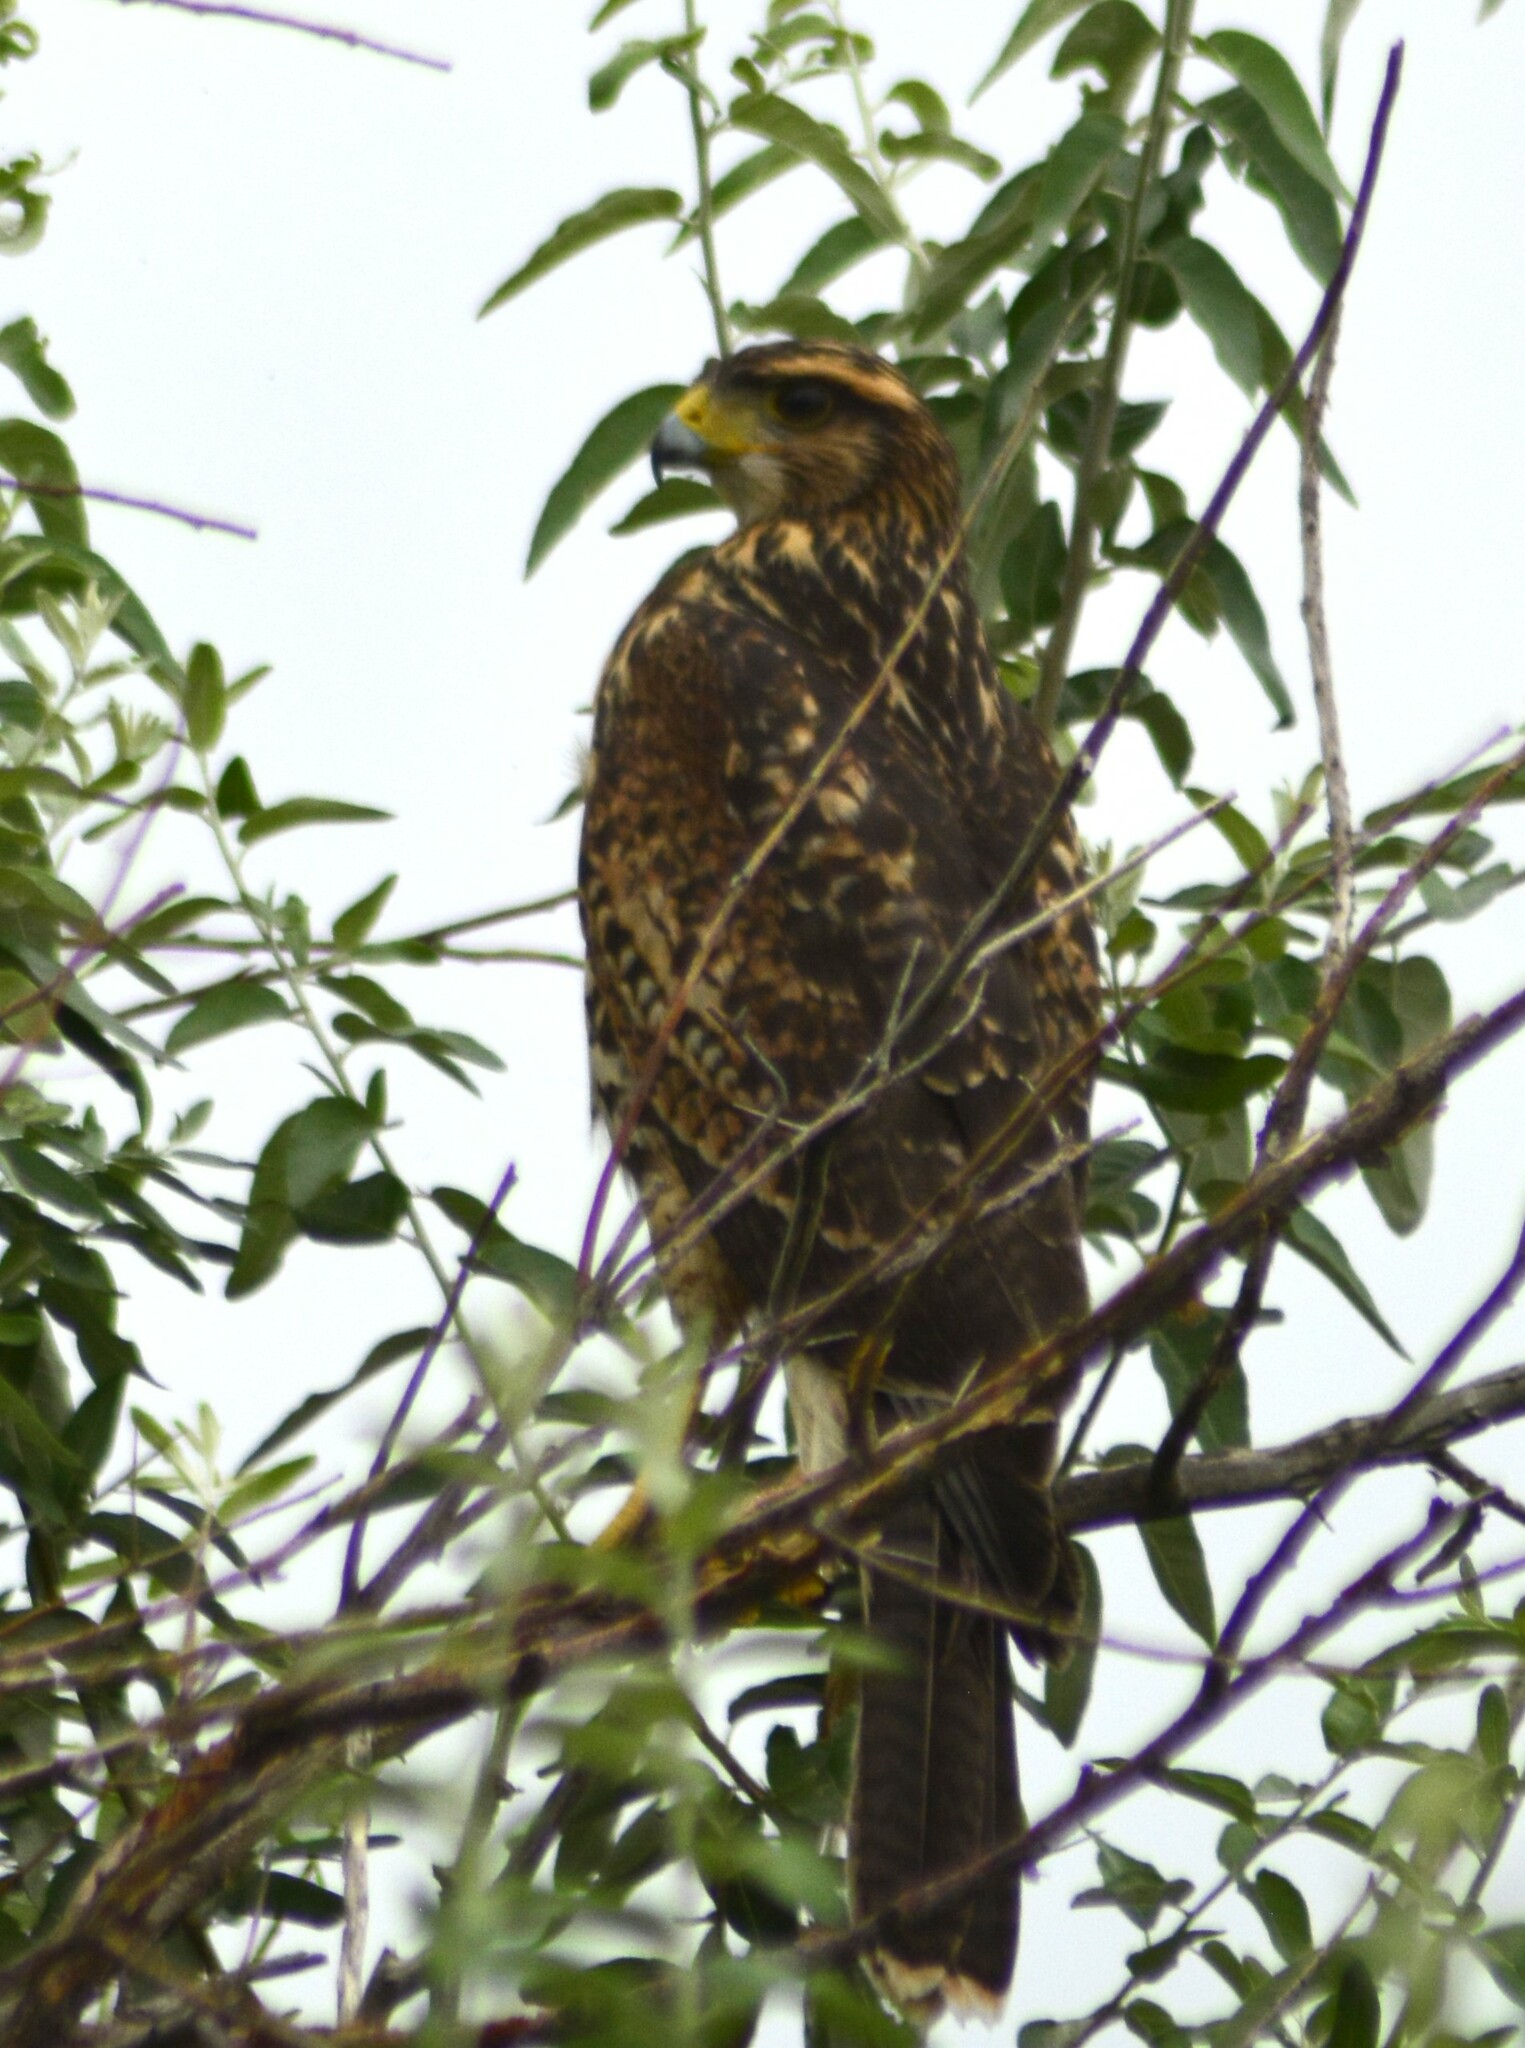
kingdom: Animalia
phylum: Chordata
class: Aves
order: Accipitriformes
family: Accipitridae
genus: Parabuteo
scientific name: Parabuteo unicinctus
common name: Harris's hawk
